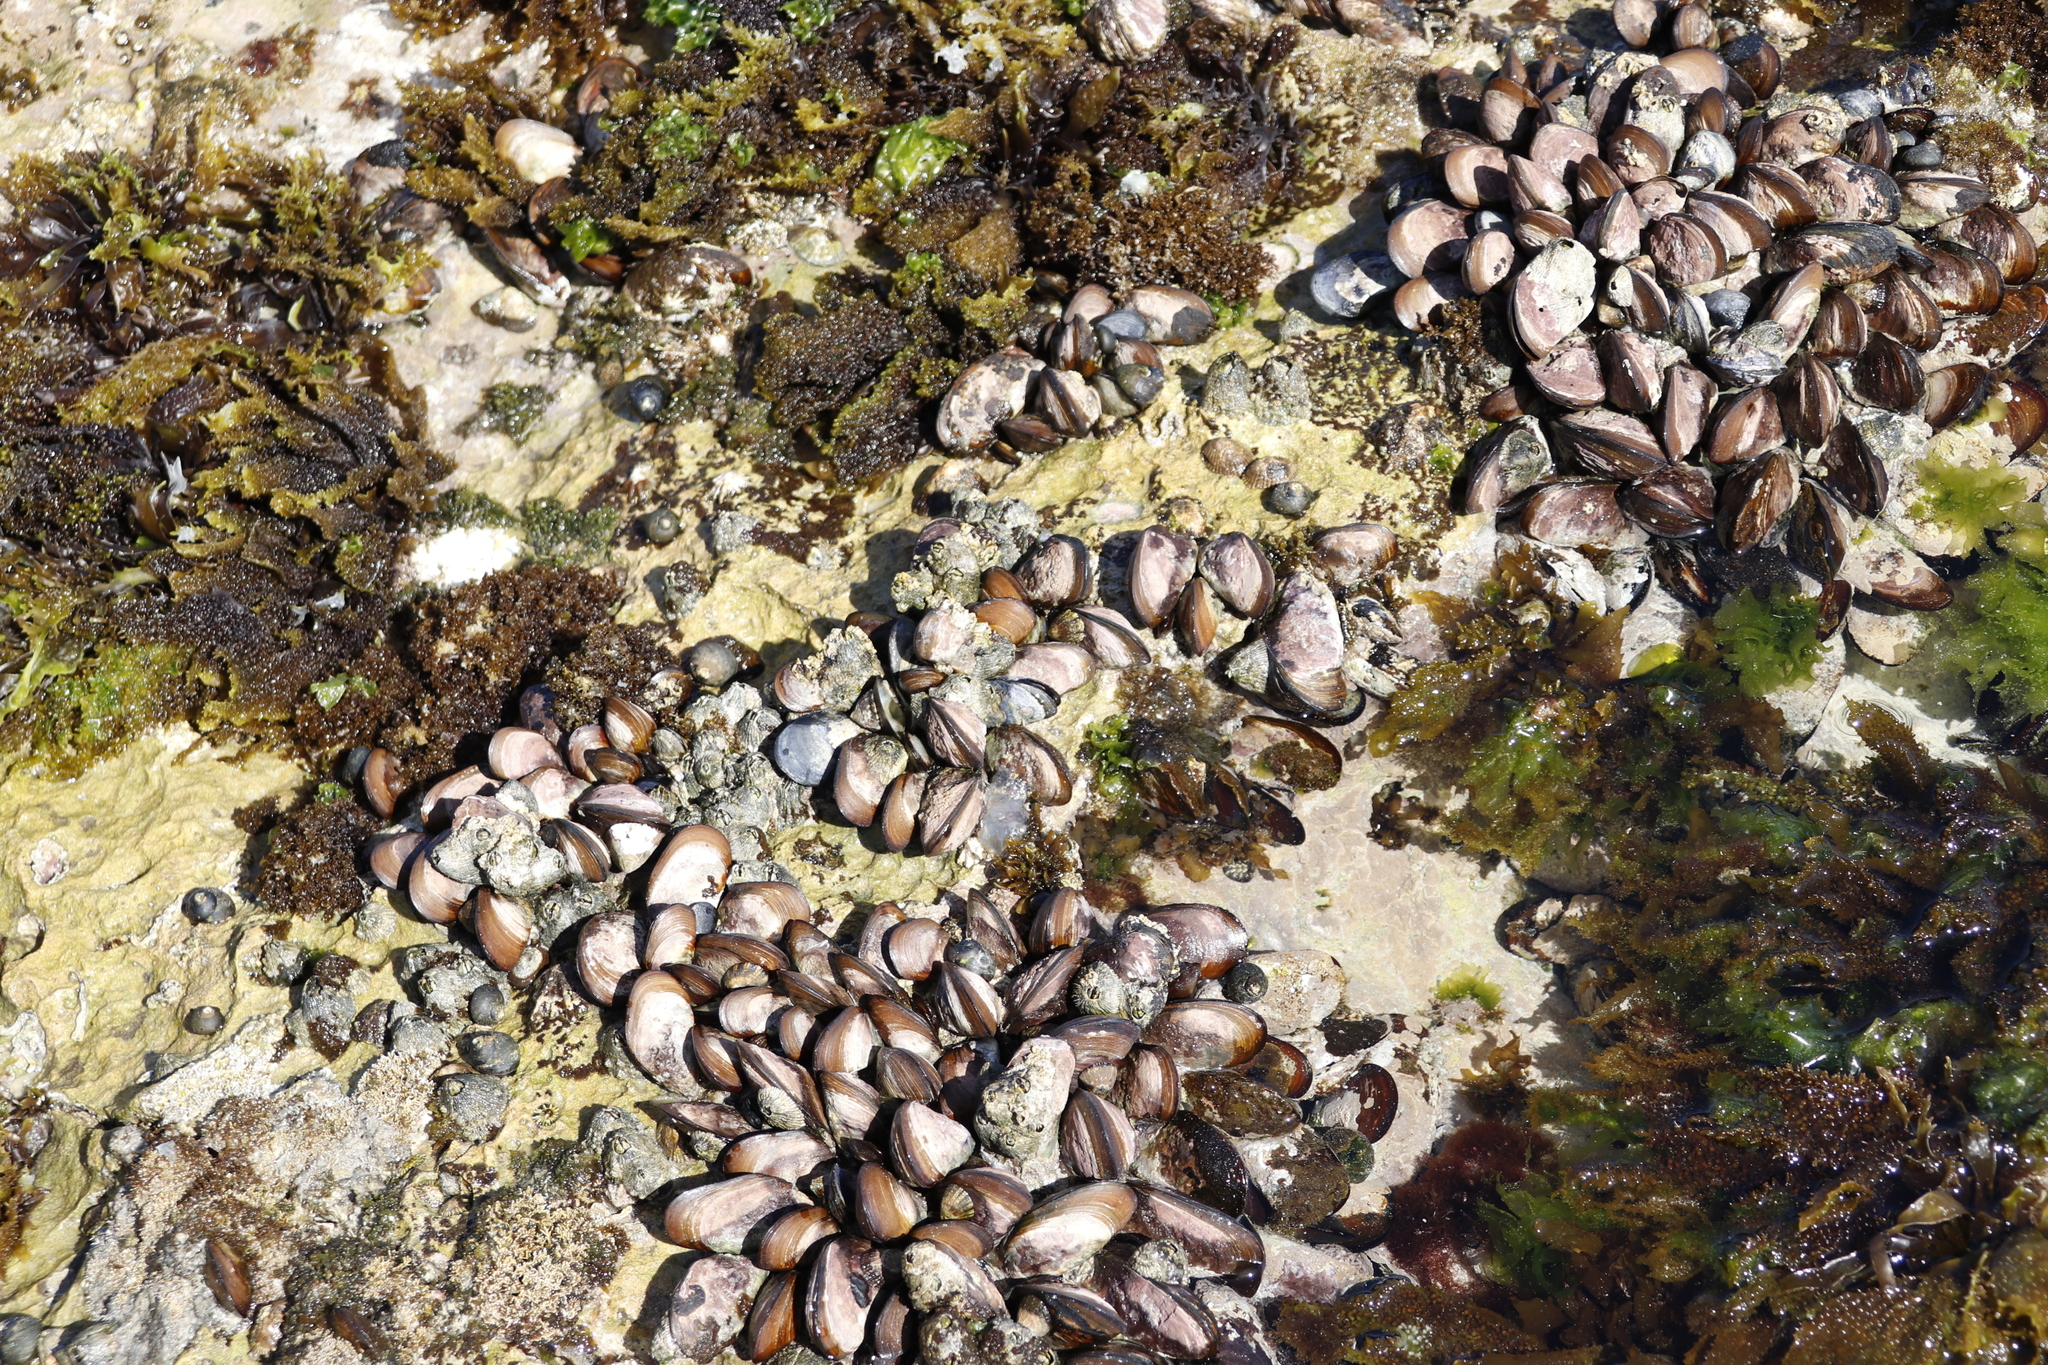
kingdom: Animalia
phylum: Mollusca
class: Bivalvia
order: Mytilida
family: Mytilidae
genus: Perna
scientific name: Perna perna
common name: Mexilhao mussel
